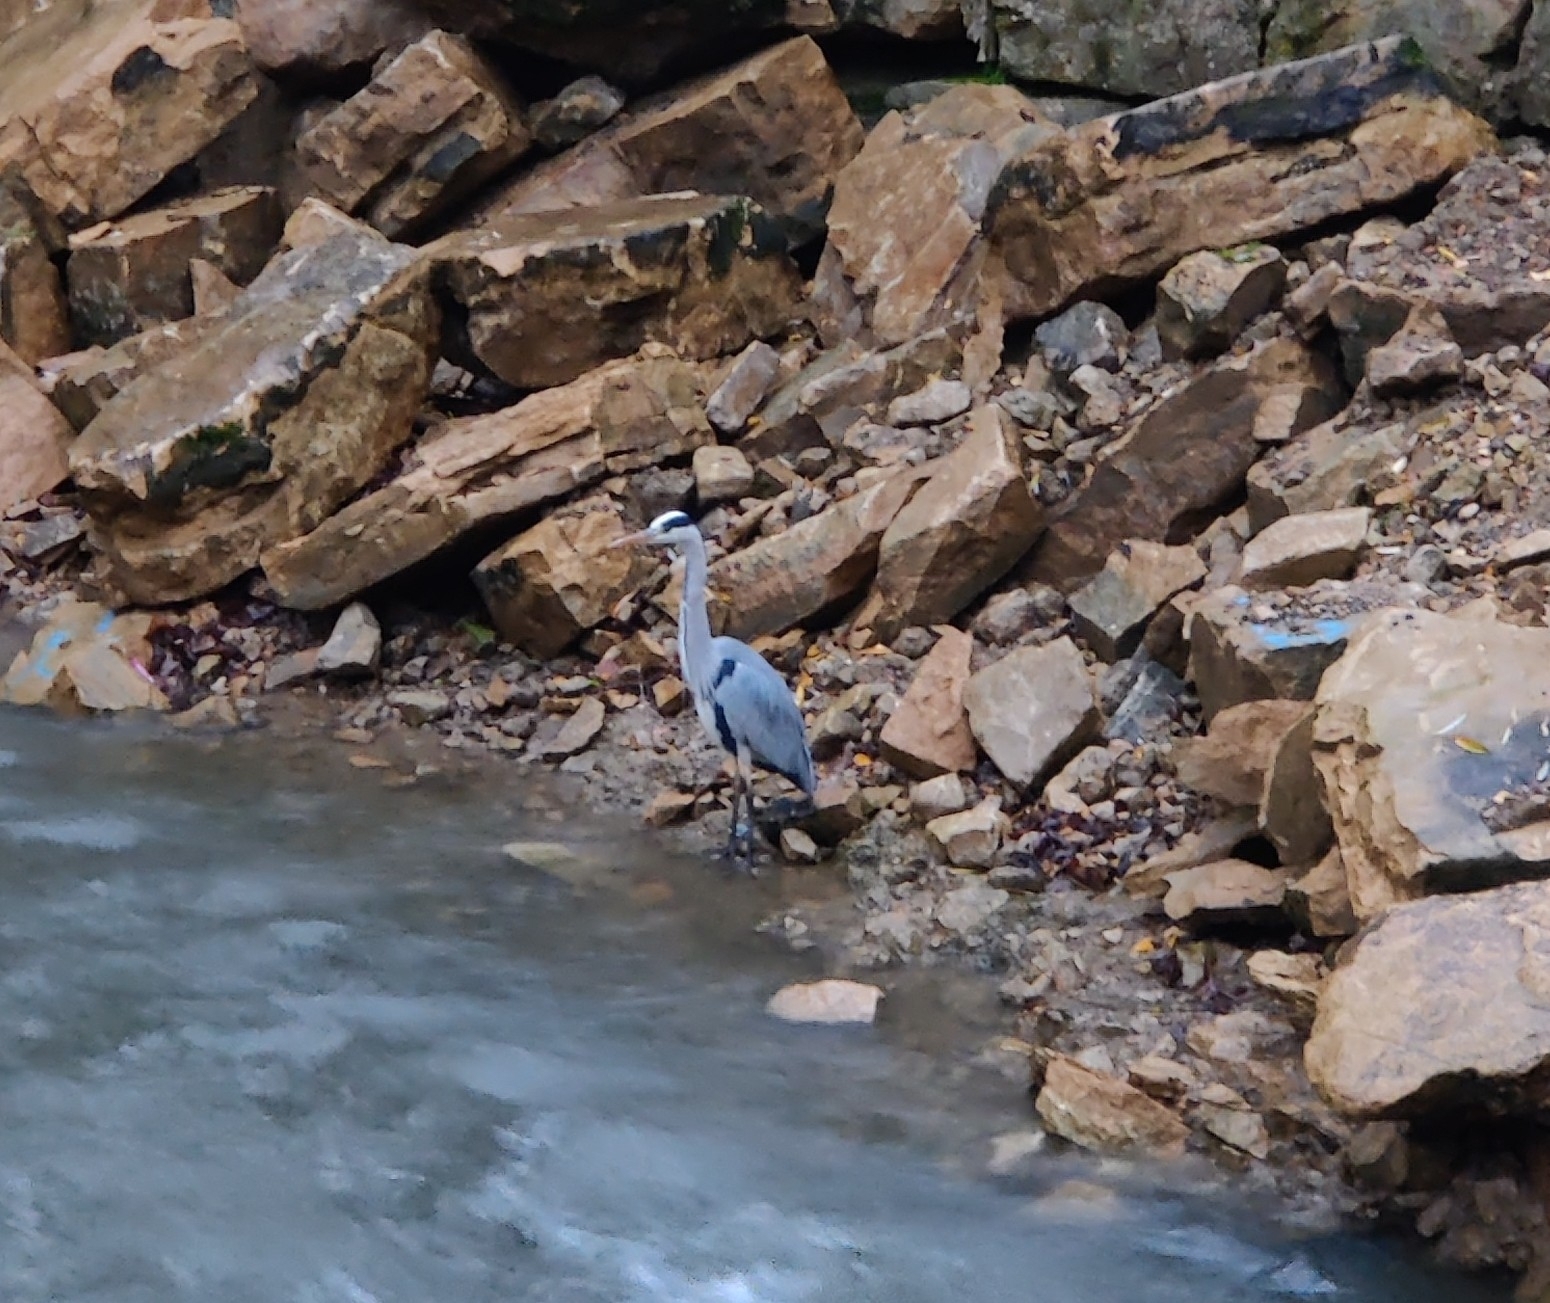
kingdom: Animalia
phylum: Chordata
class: Aves
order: Pelecaniformes
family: Ardeidae
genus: Ardea
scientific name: Ardea cinerea
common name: Grey heron
